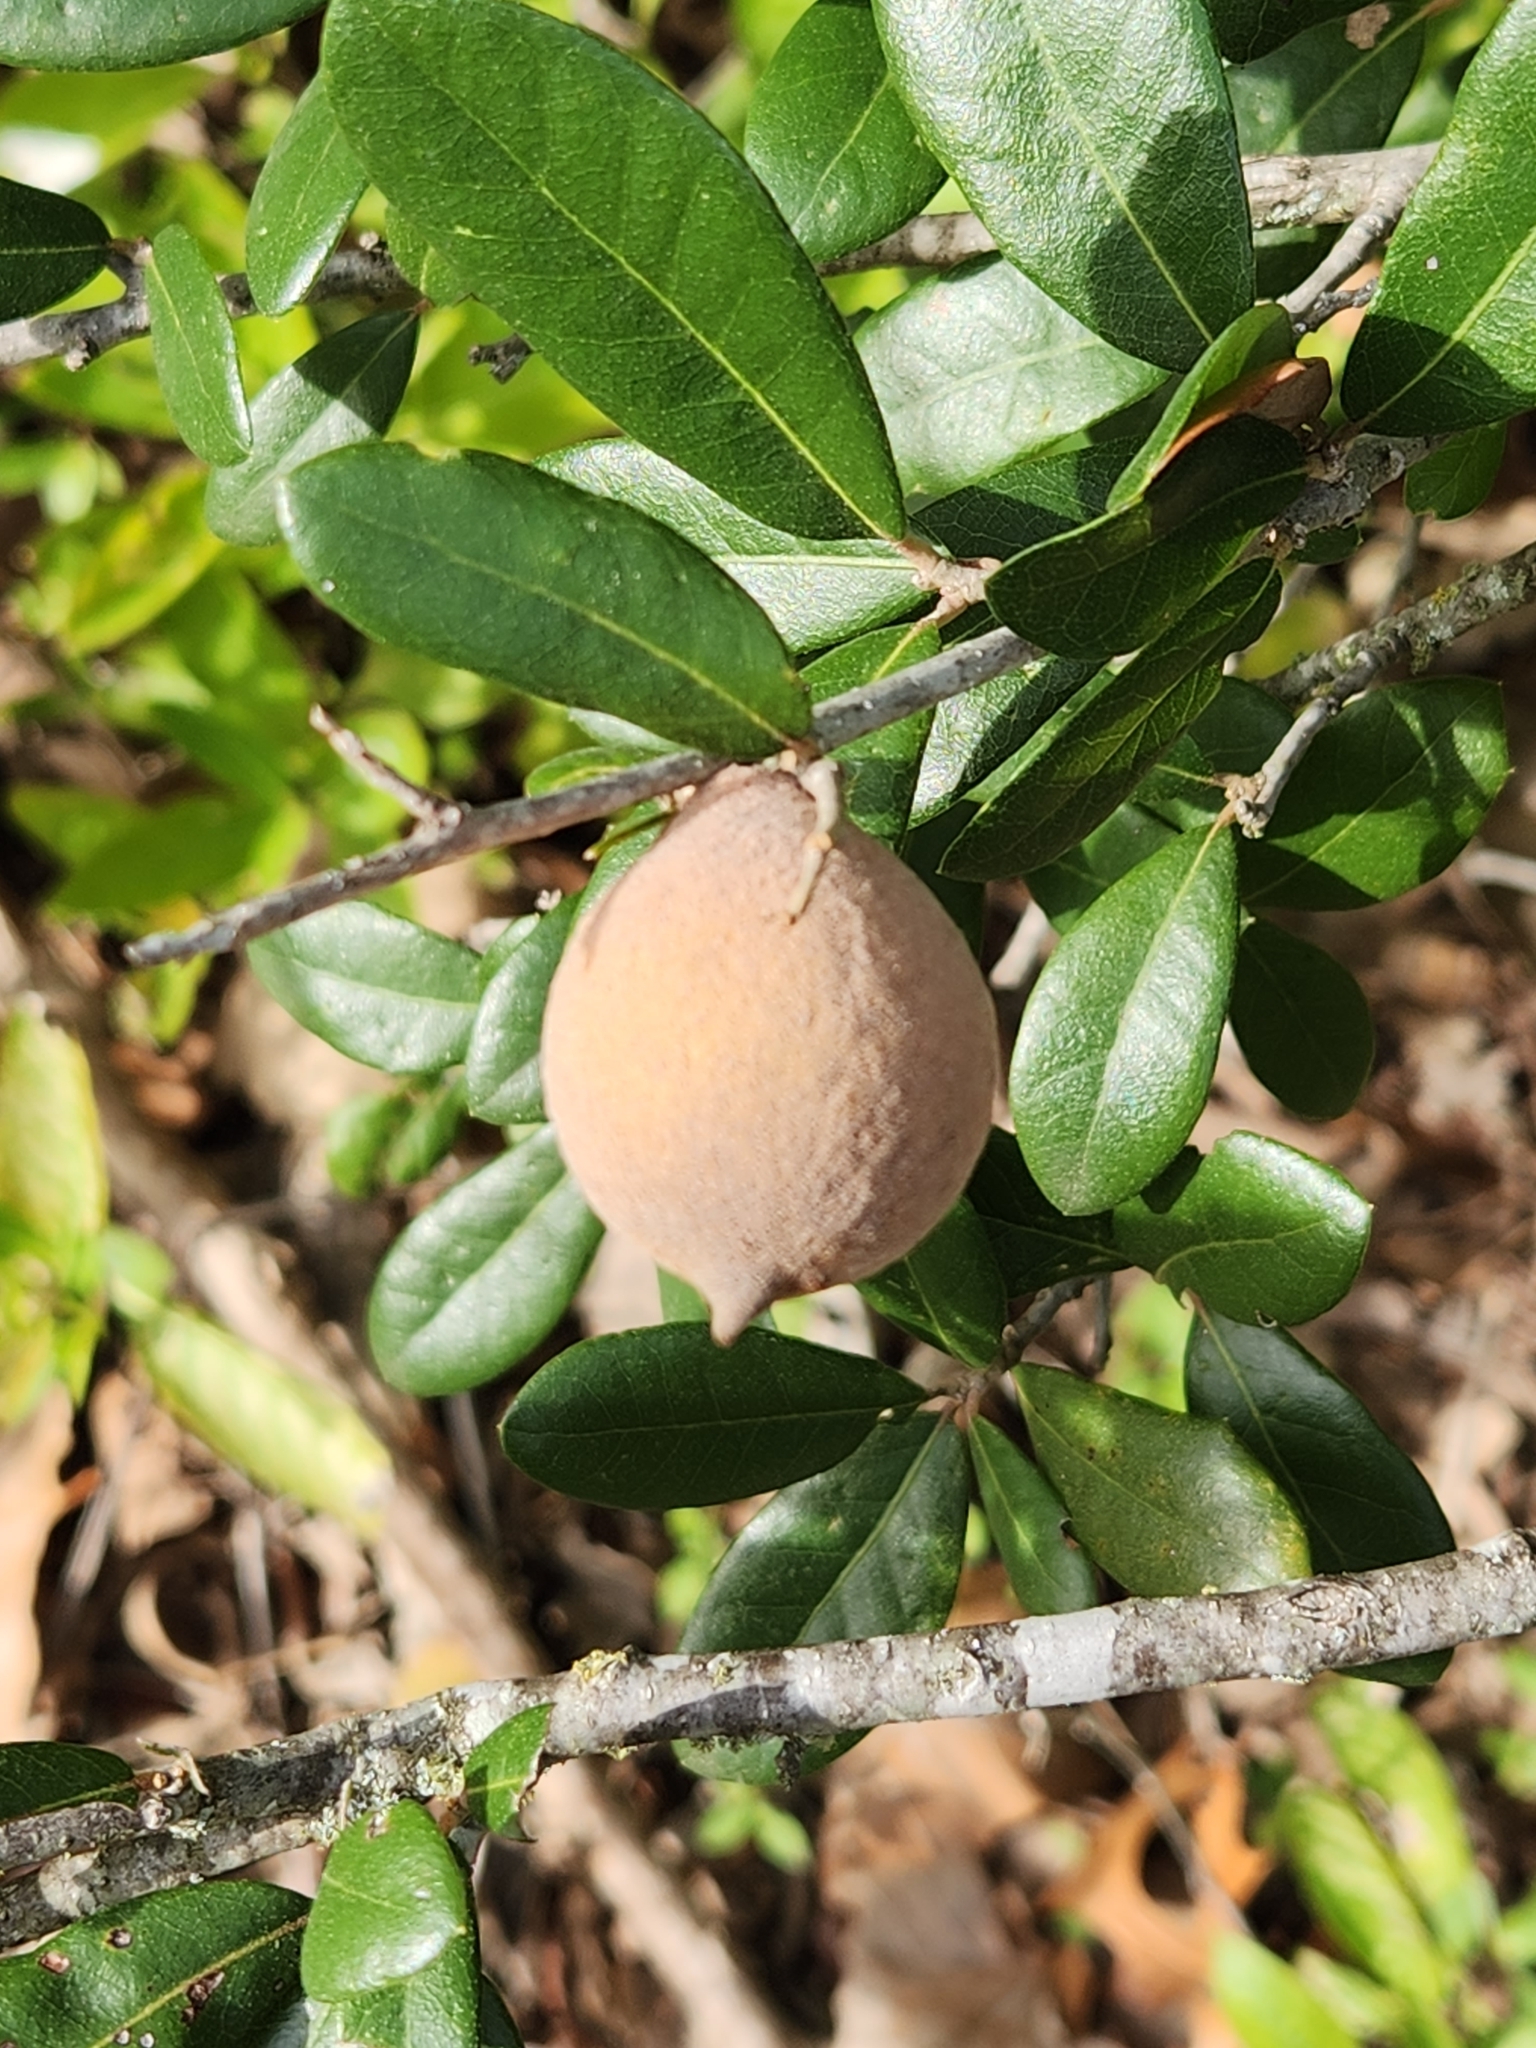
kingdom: Animalia
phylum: Arthropoda
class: Insecta
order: Hymenoptera
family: Cynipidae
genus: Disholcaspis
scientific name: Disholcaspis
